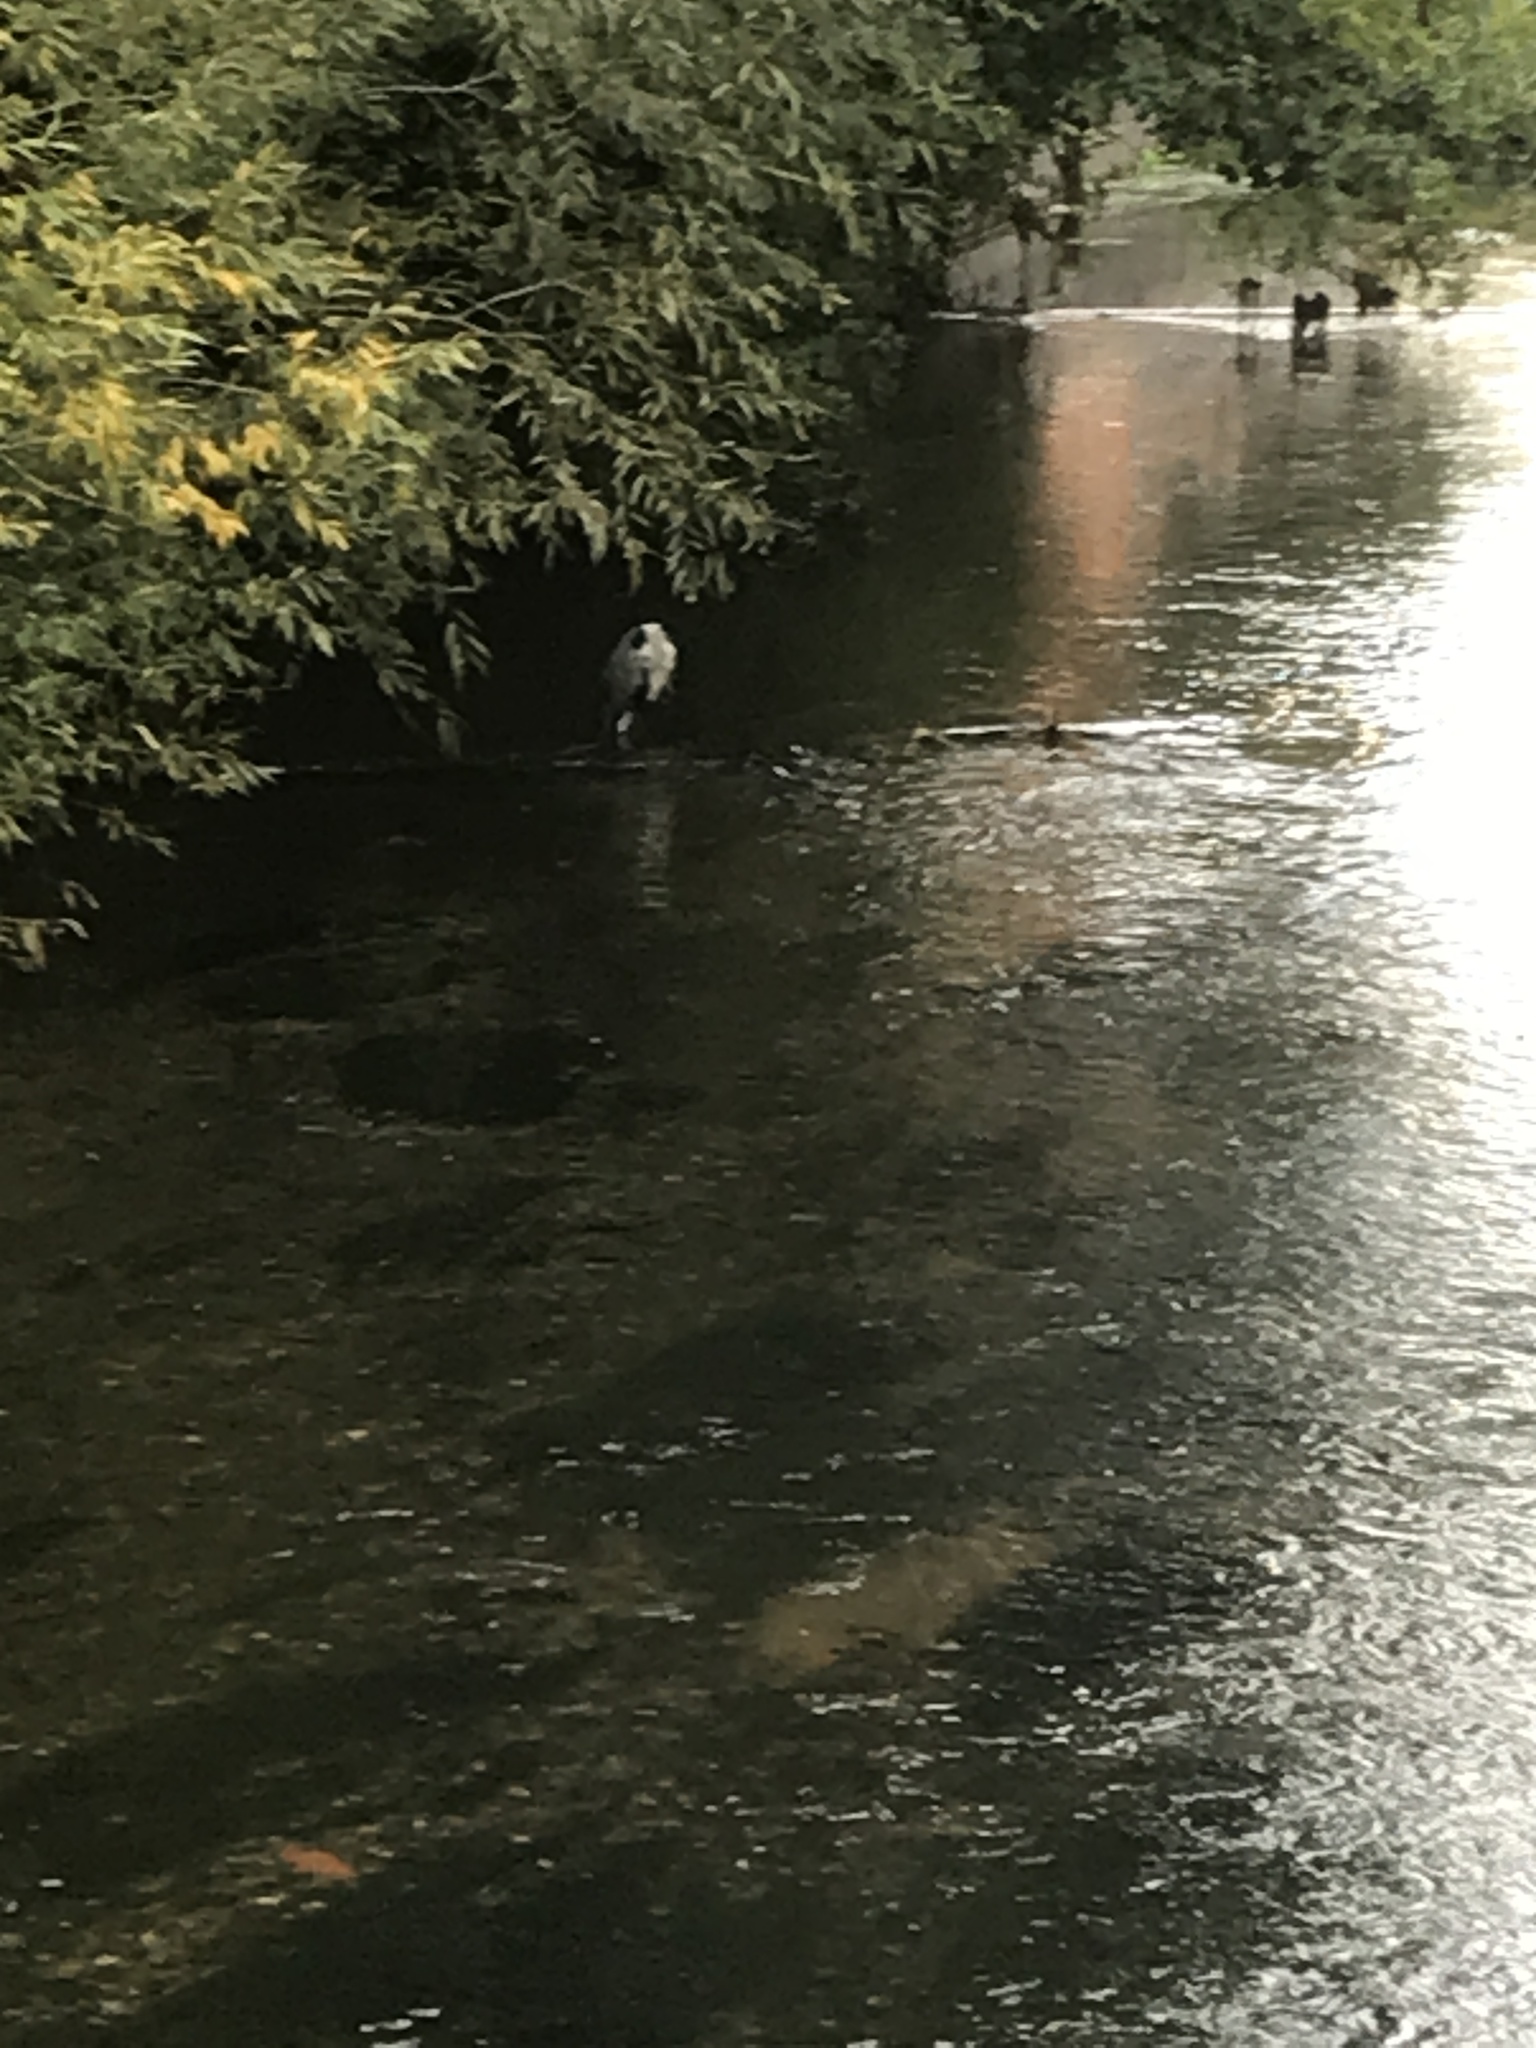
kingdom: Animalia
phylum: Chordata
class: Aves
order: Pelecaniformes
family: Ardeidae
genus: Ardea
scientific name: Ardea cinerea
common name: Grey heron
